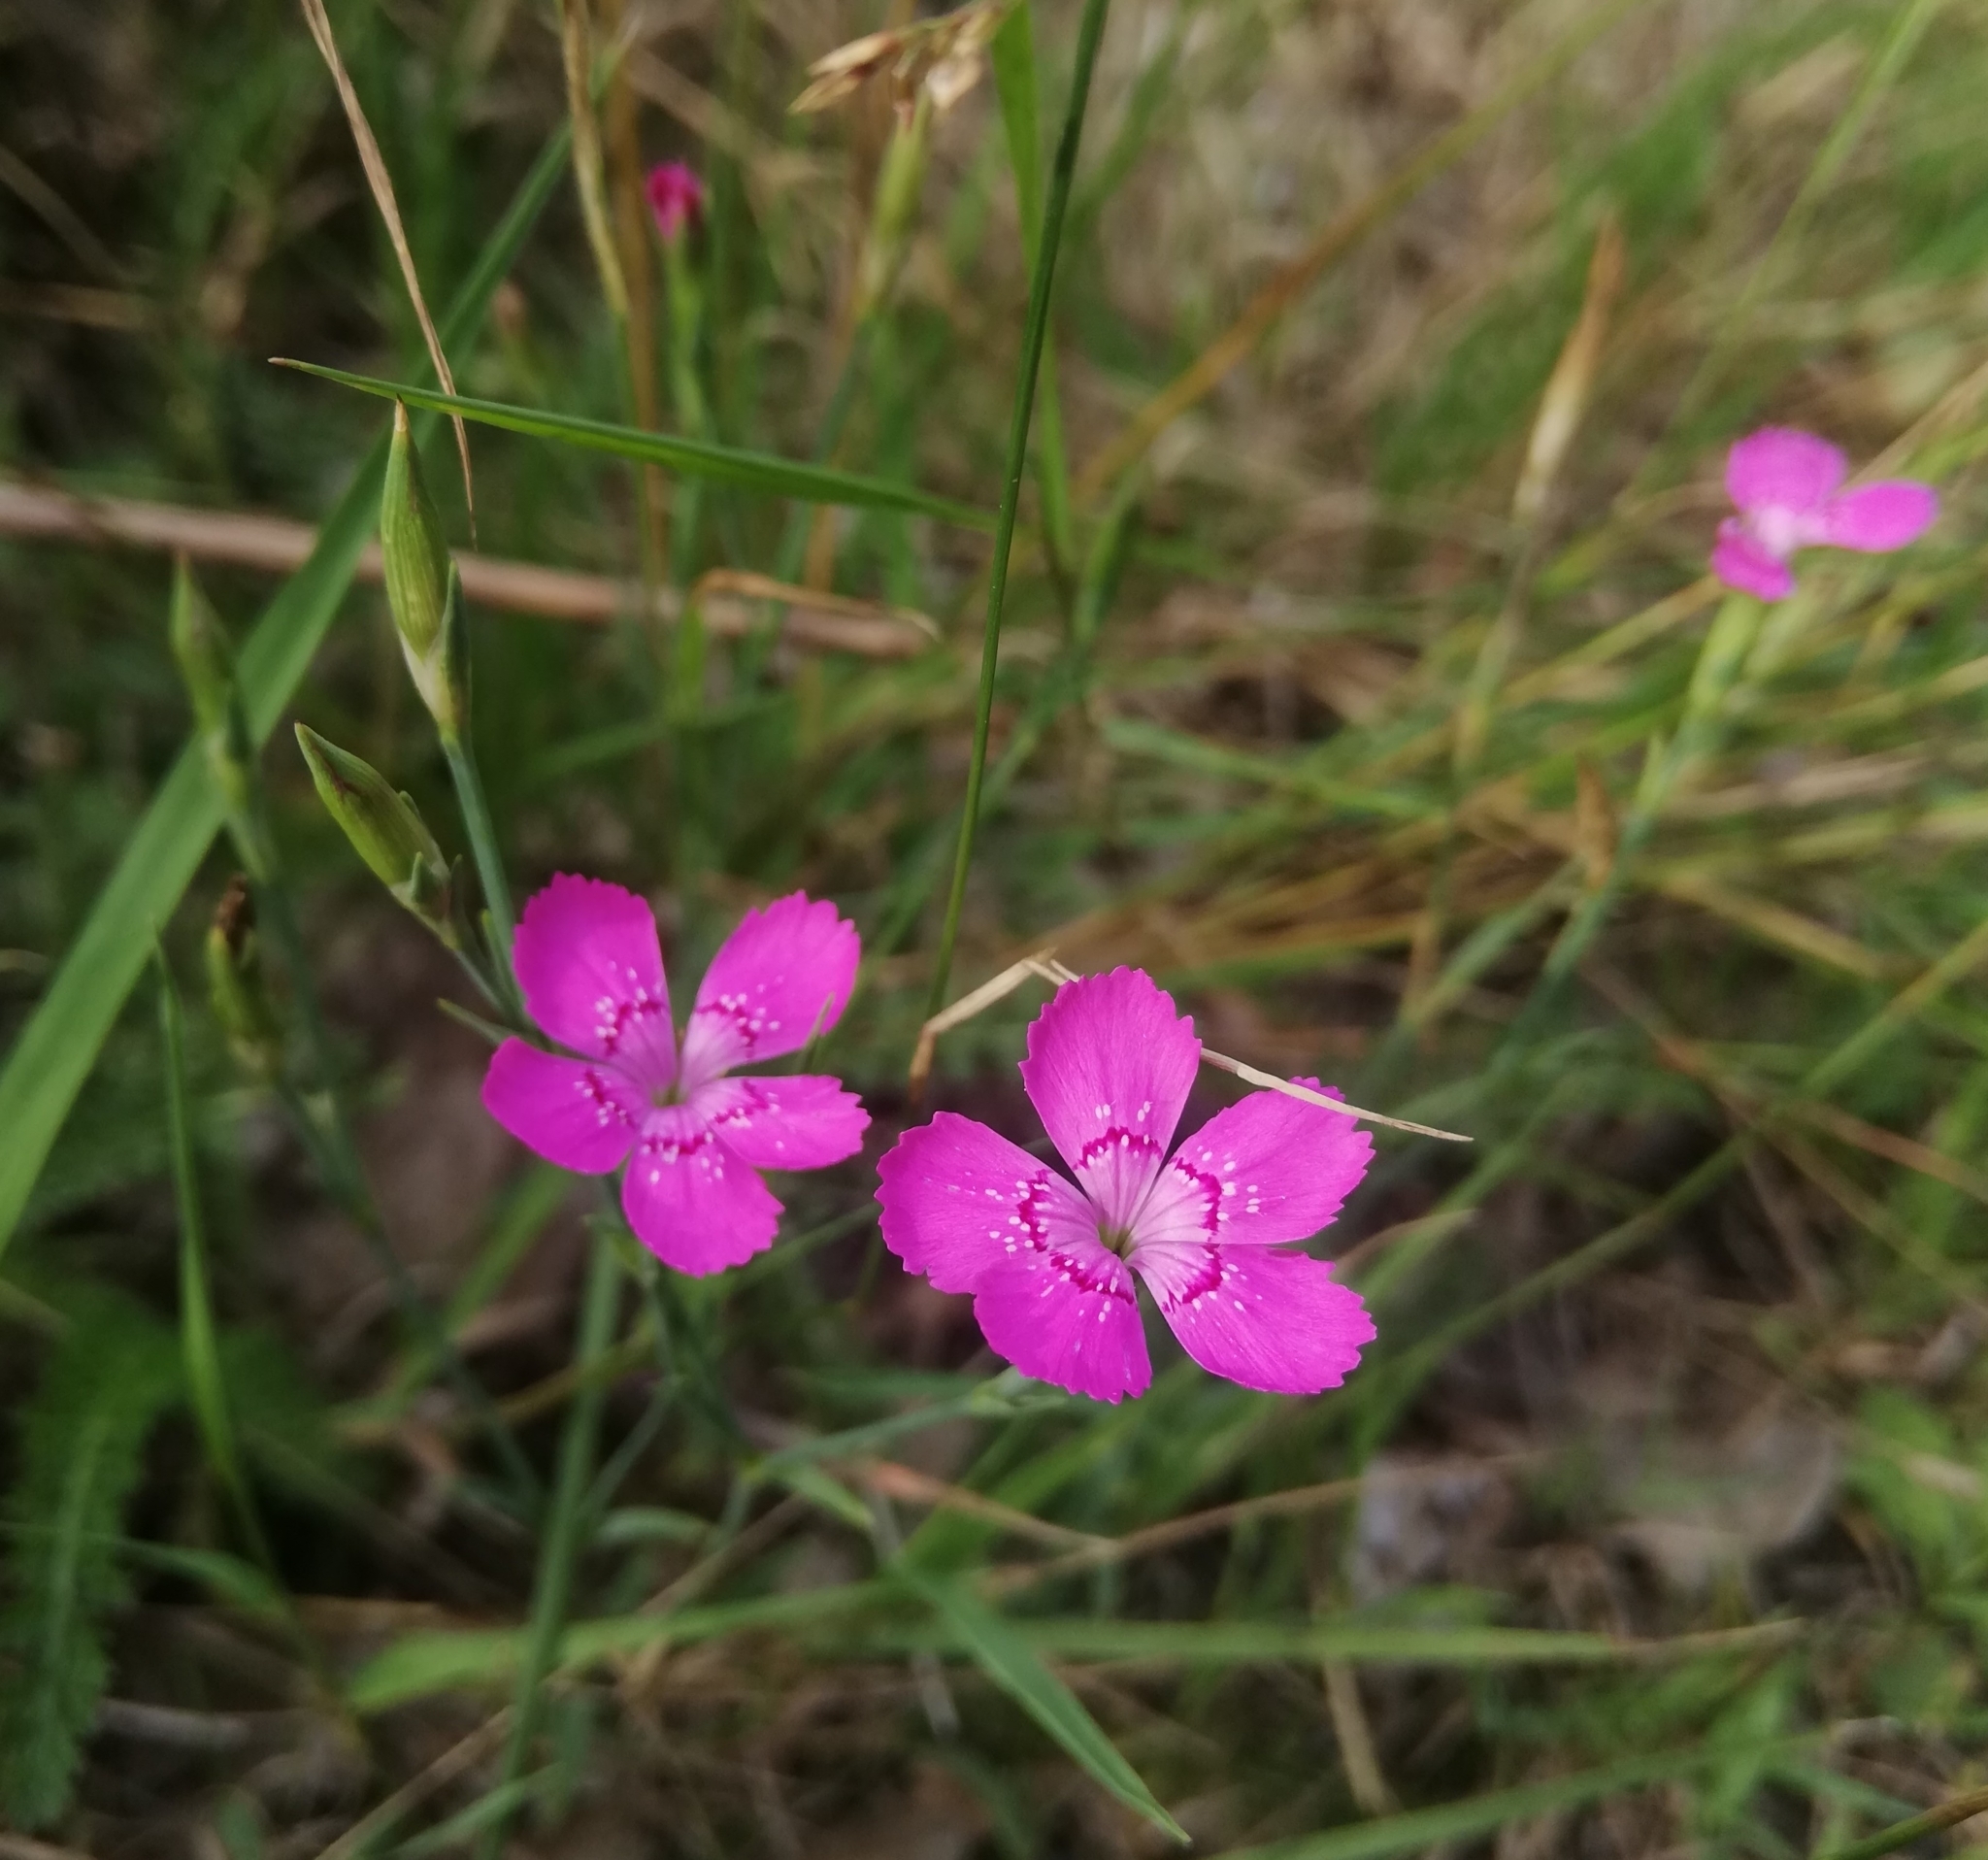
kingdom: Plantae
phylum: Tracheophyta
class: Magnoliopsida
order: Caryophyllales
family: Caryophyllaceae
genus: Dianthus
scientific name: Dianthus deltoides
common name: Maiden pink
